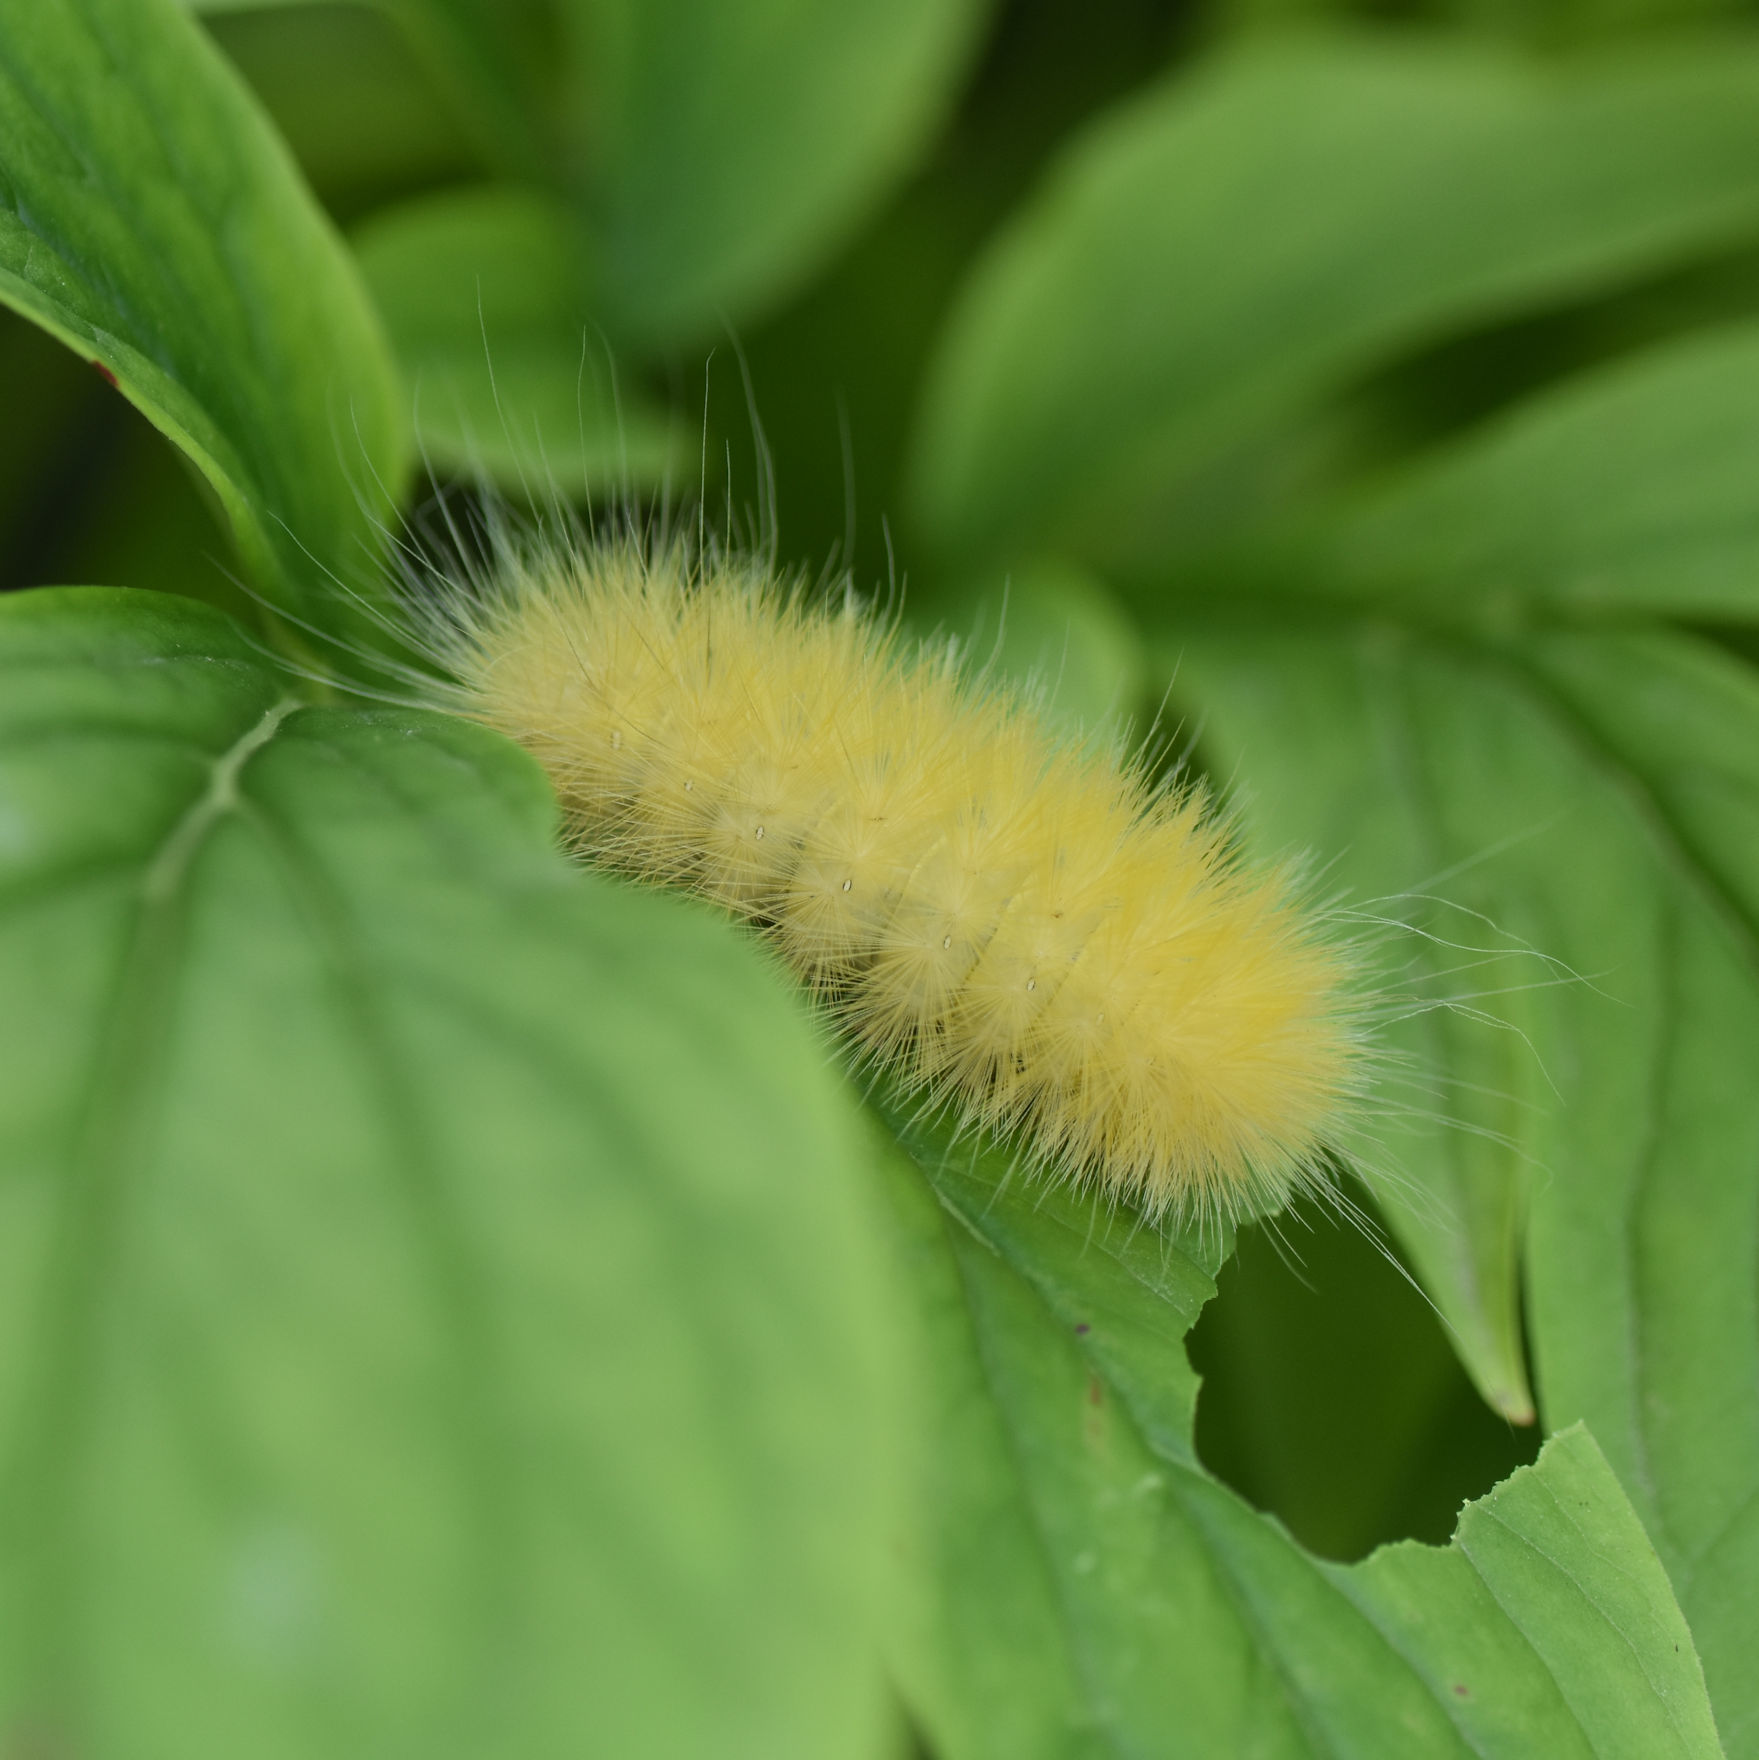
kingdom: Animalia
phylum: Arthropoda
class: Insecta
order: Lepidoptera
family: Erebidae
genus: Spilosoma
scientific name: Spilosoma virginica
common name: Virginia tiger moth
